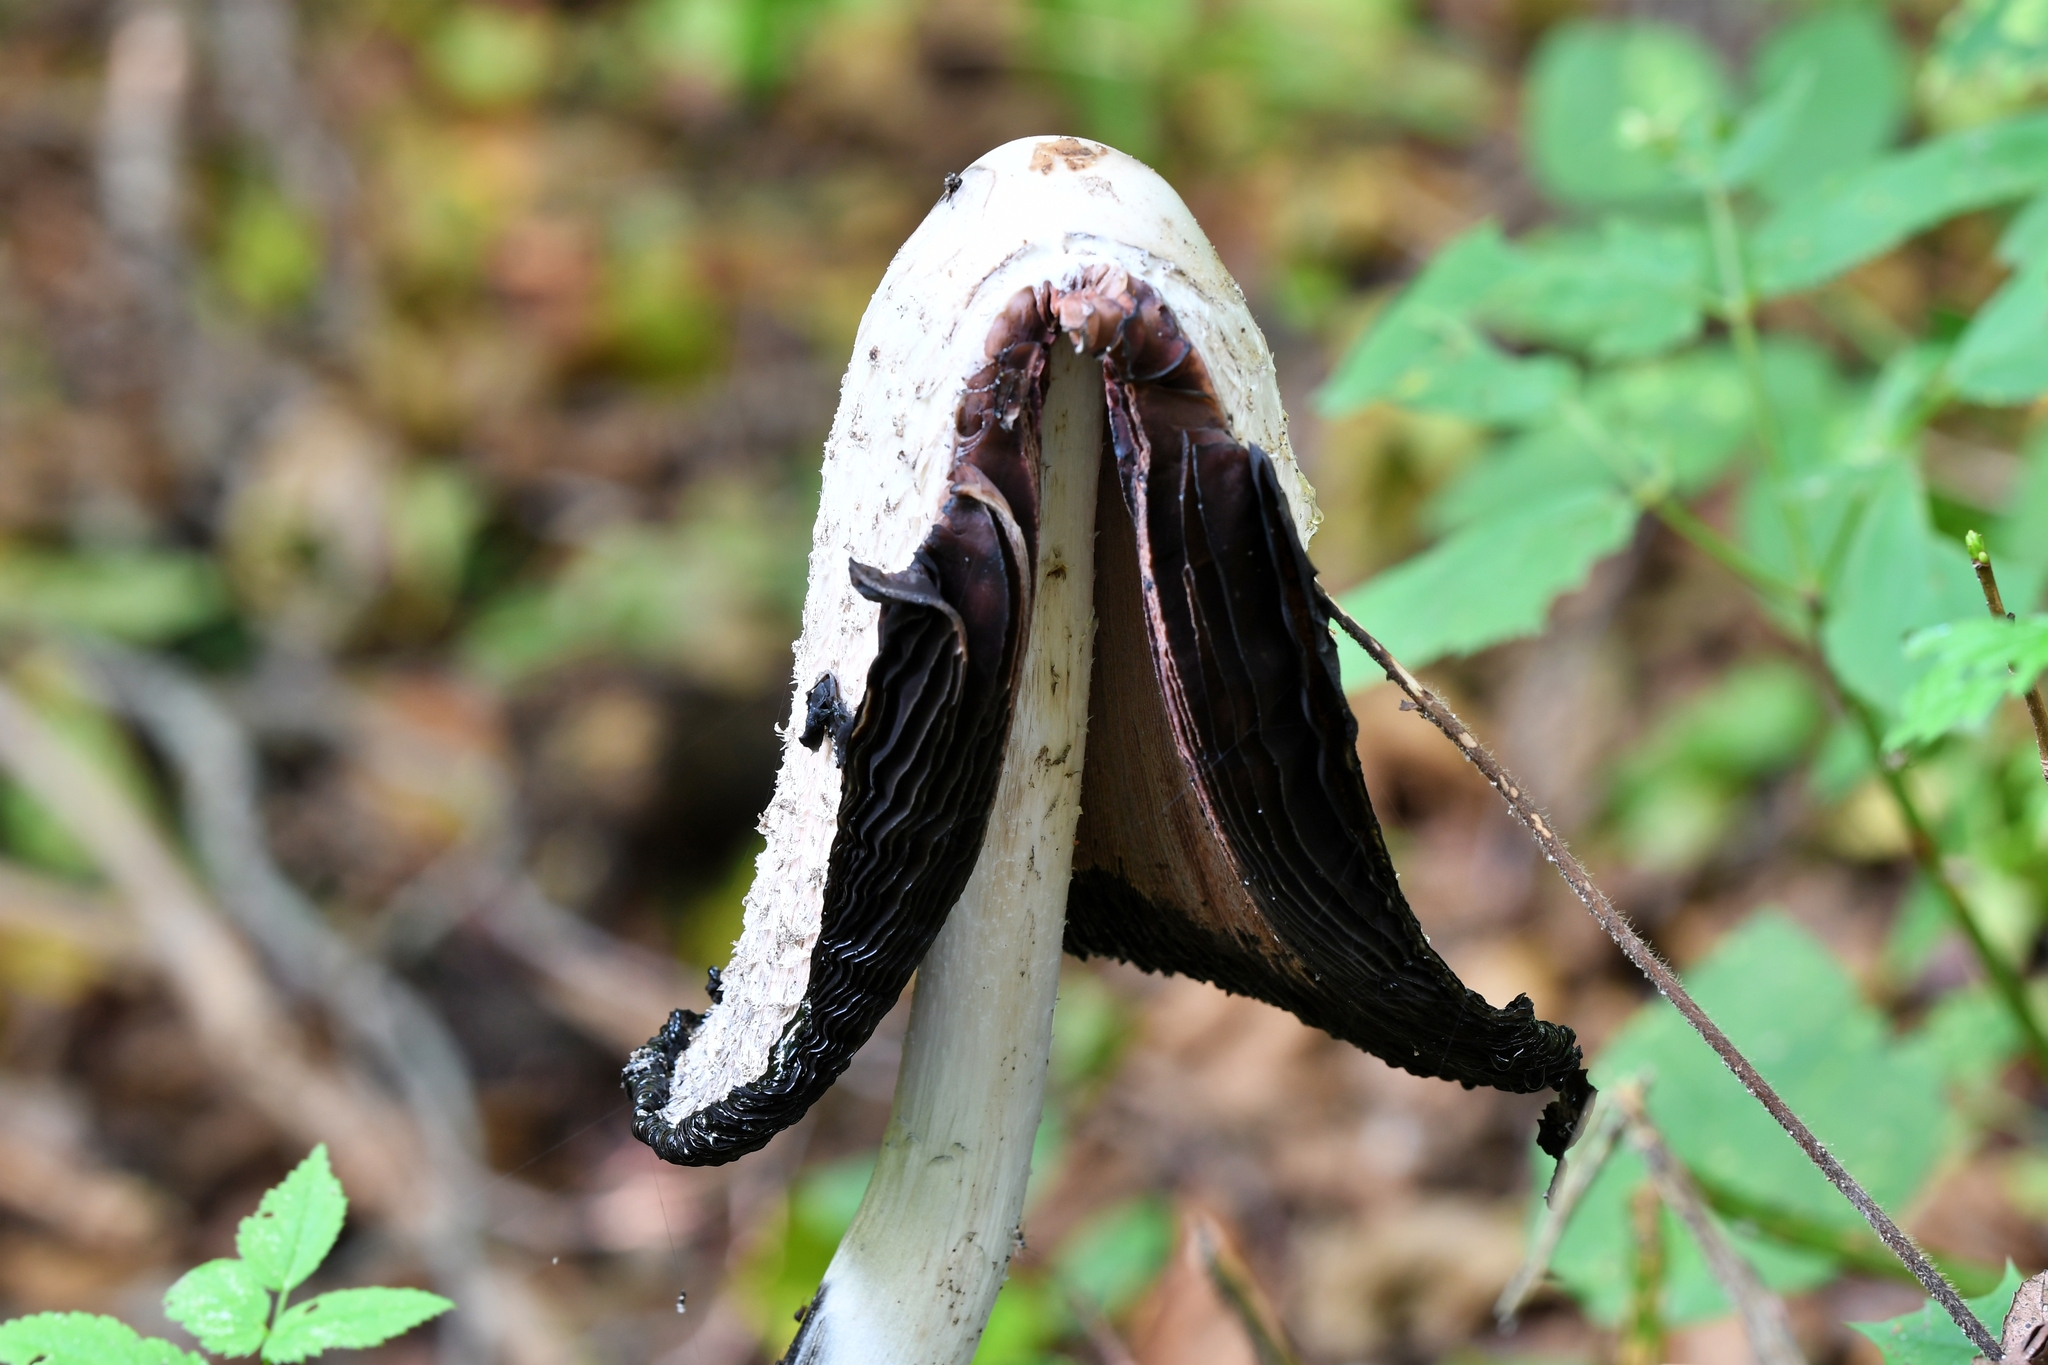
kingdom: Fungi
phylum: Basidiomycota
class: Agaricomycetes
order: Agaricales
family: Agaricaceae
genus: Coprinus
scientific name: Coprinus comatus
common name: Lawyer's wig
